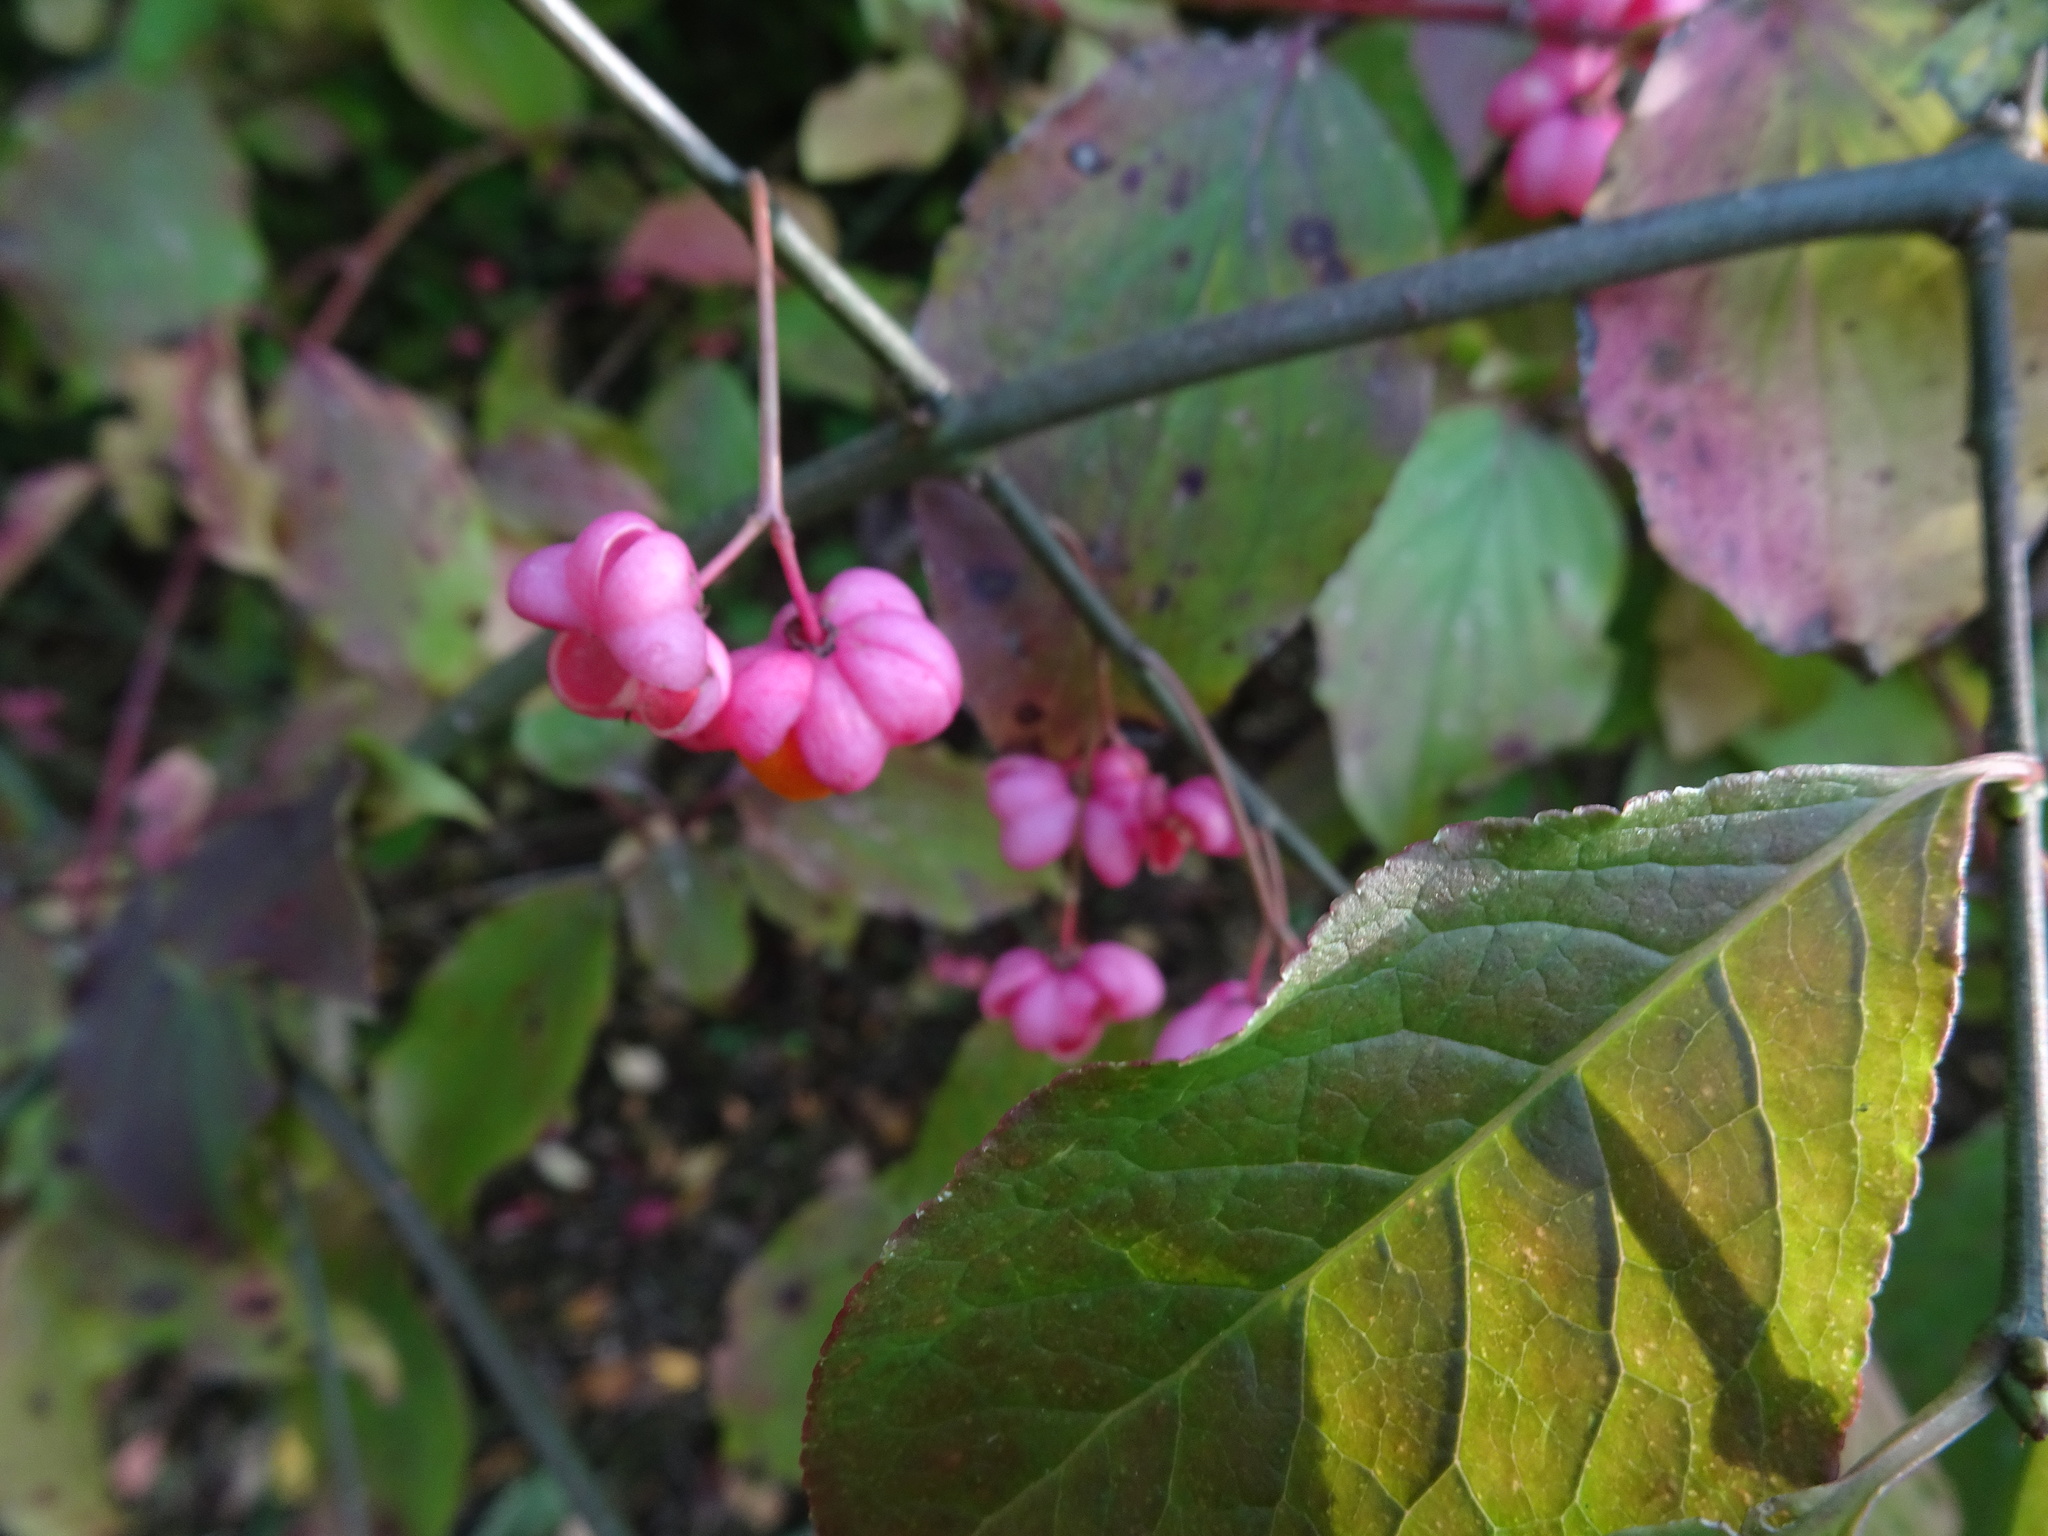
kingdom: Plantae
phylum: Tracheophyta
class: Magnoliopsida
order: Celastrales
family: Celastraceae
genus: Euonymus
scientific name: Euonymus europaeus
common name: Spindle
